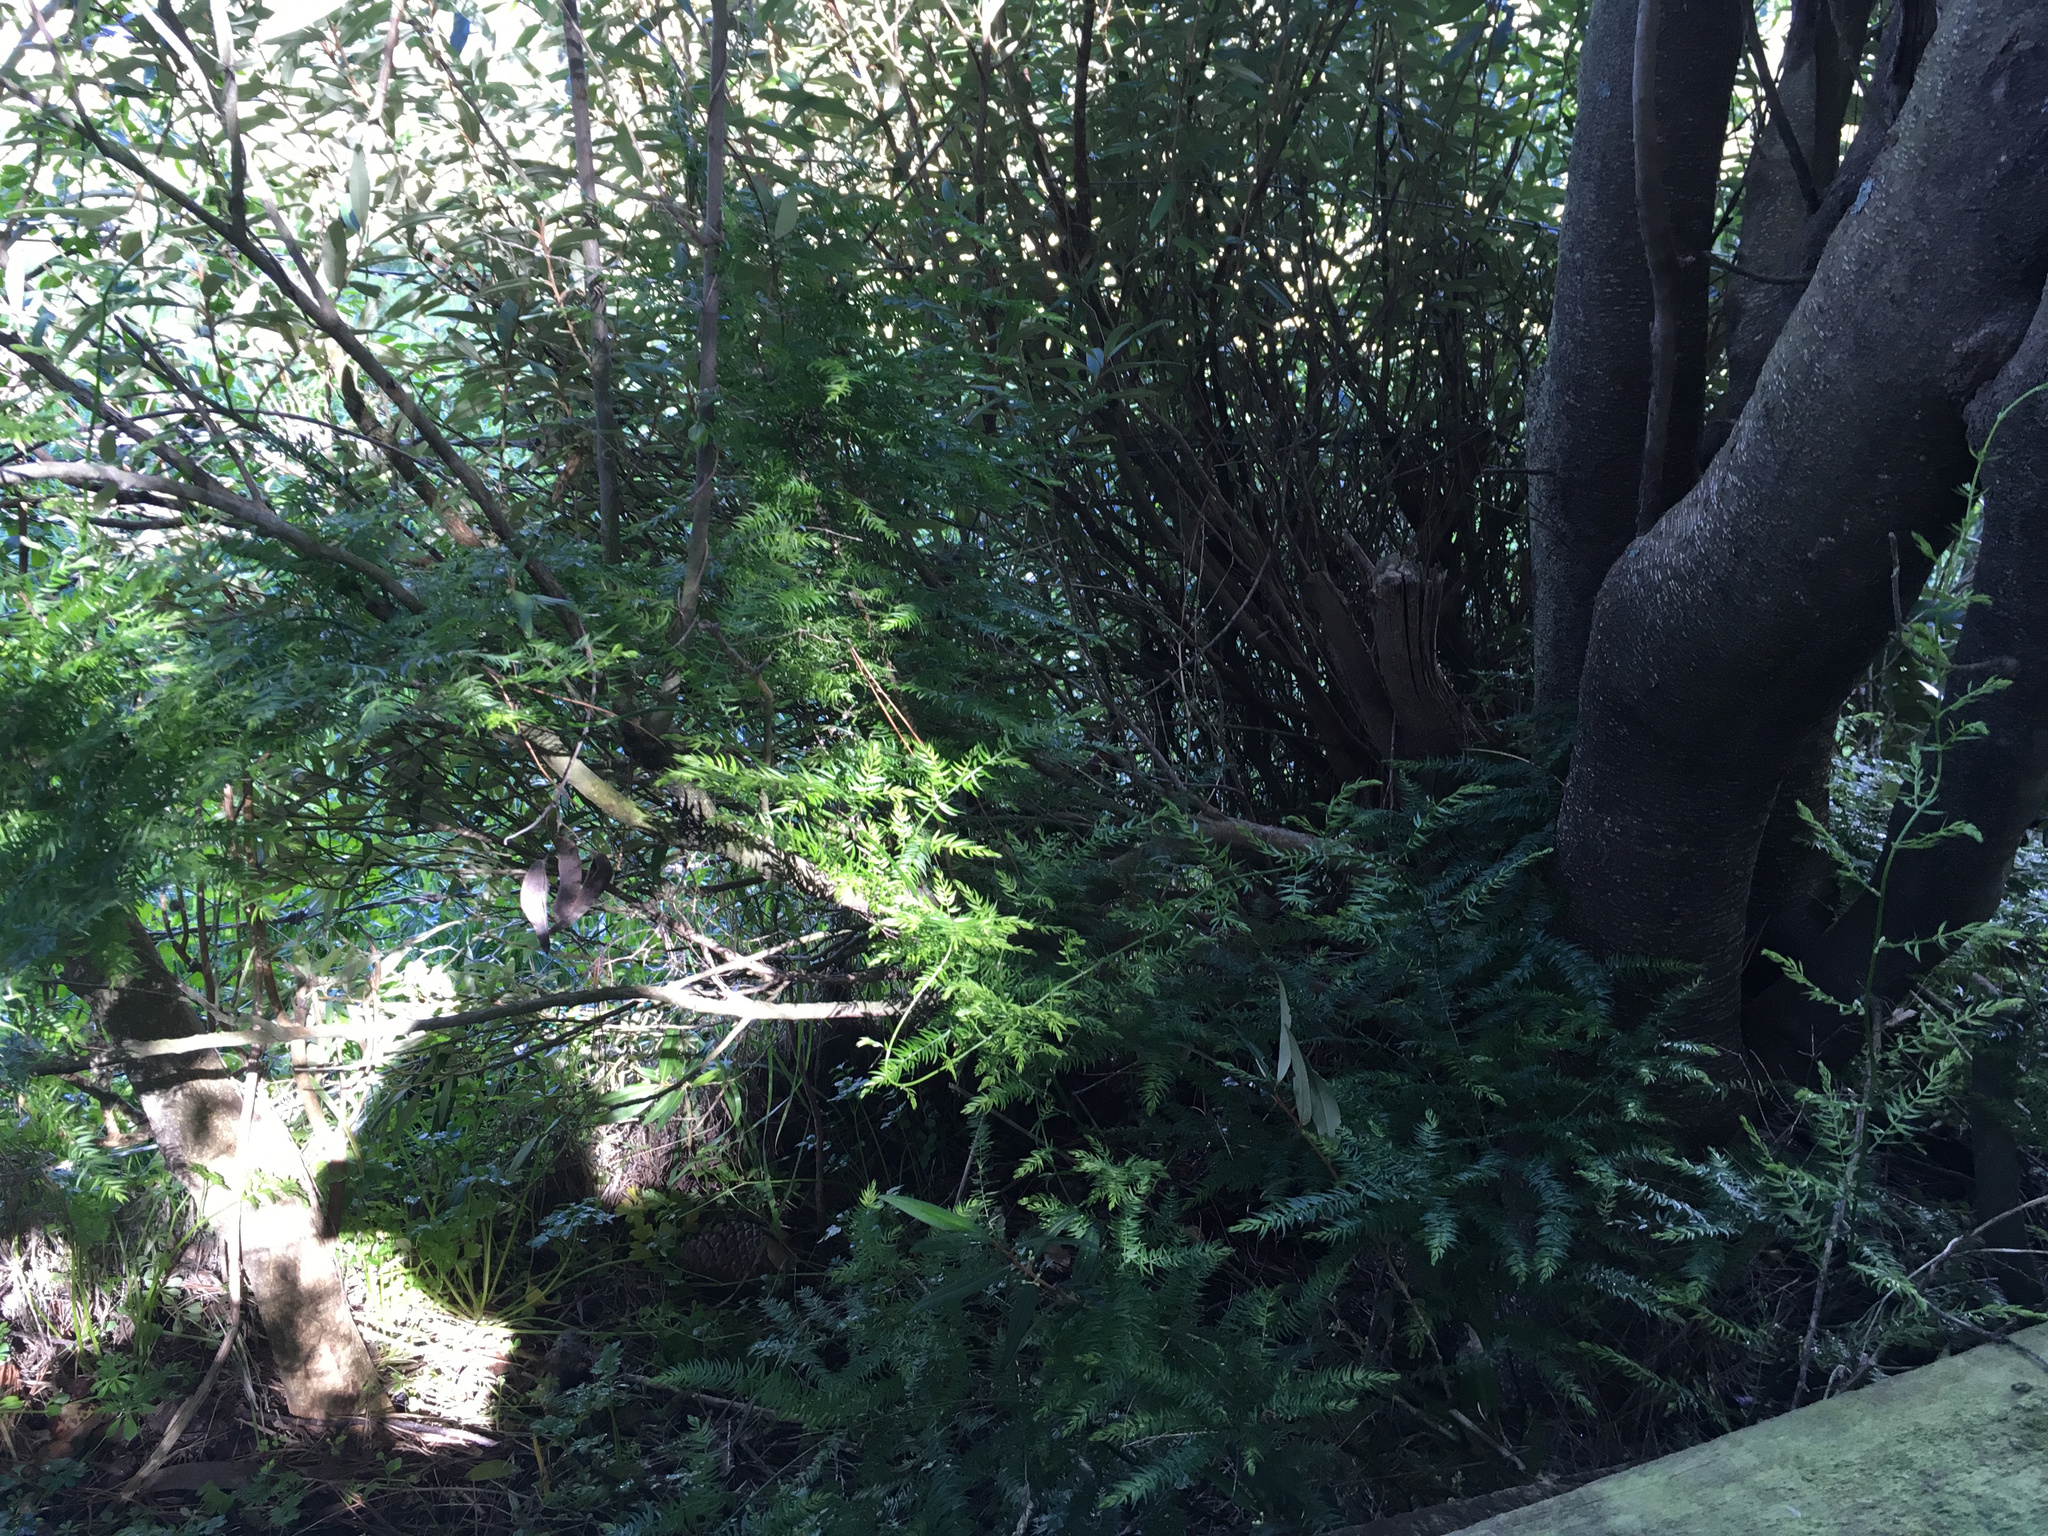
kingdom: Plantae
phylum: Tracheophyta
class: Liliopsida
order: Asparagales
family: Asparagaceae
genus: Asparagus
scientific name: Asparagus scandens
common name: Asparagus-fern
